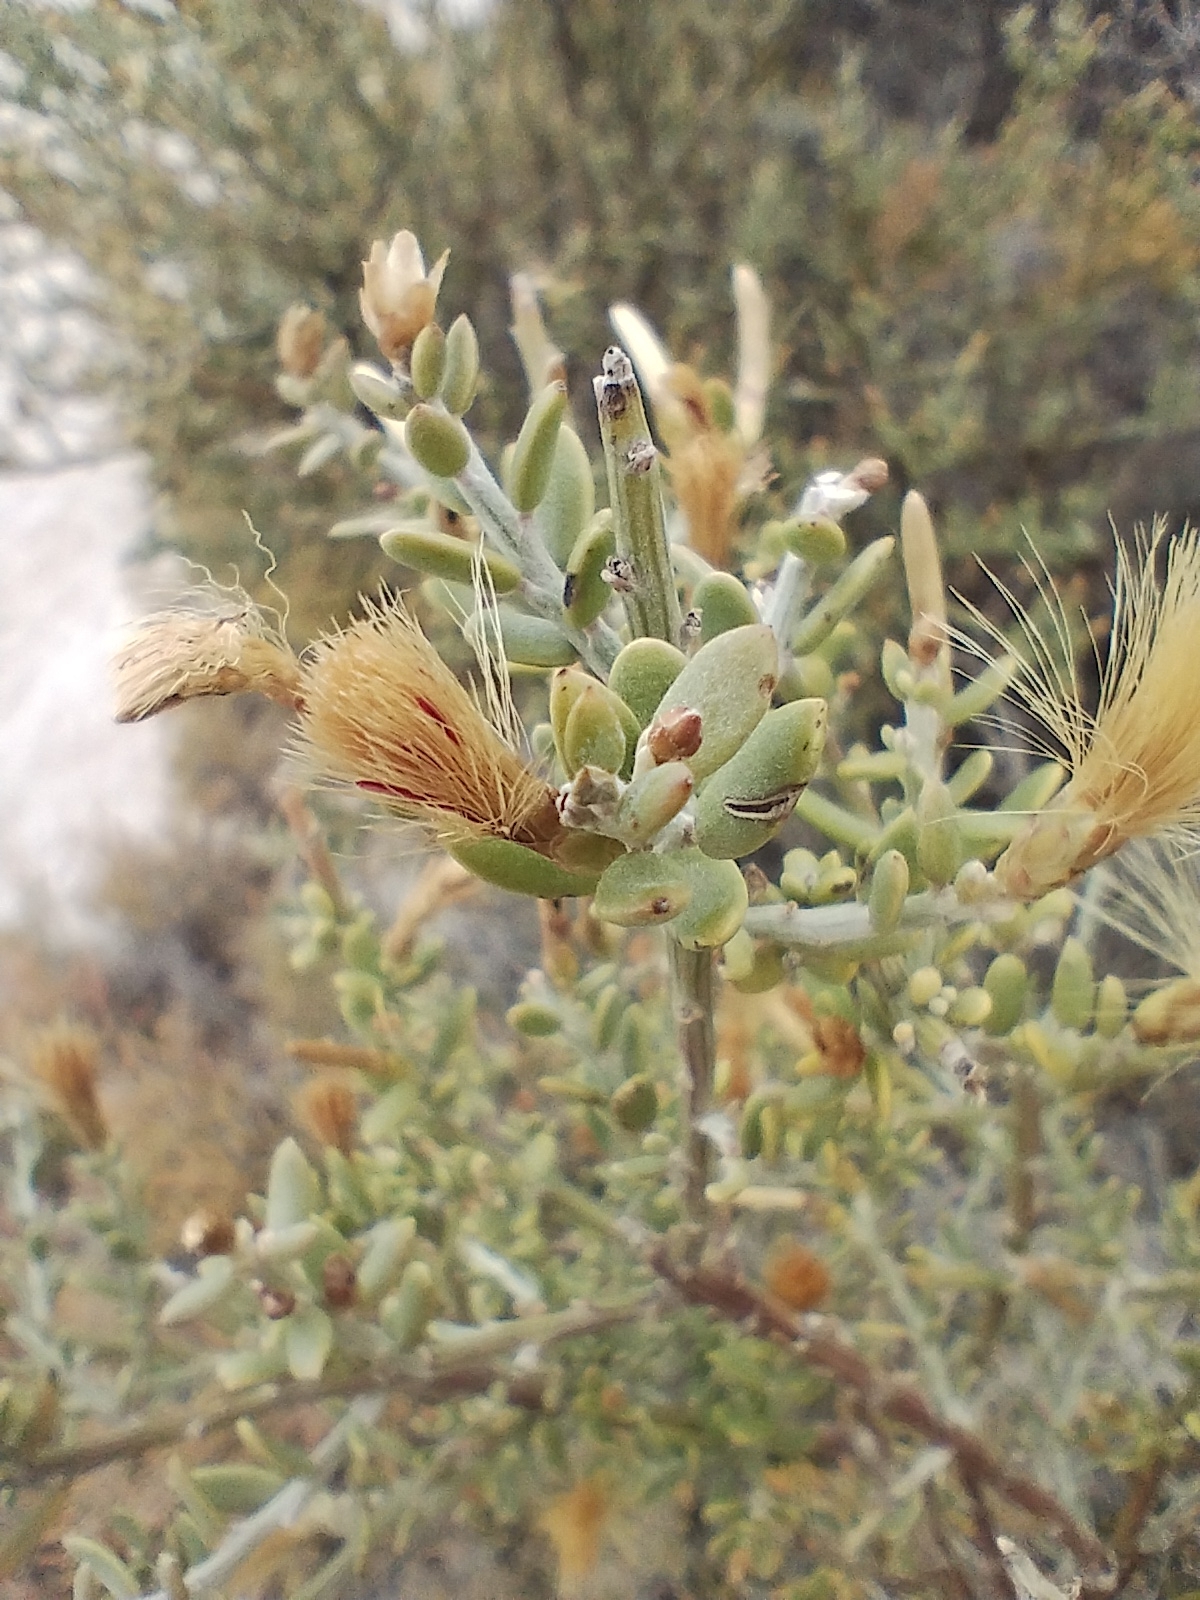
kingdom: Plantae
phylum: Tracheophyta
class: Magnoliopsida
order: Asterales
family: Asteraceae
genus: Cyclolepis
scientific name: Cyclolepis genistoides
